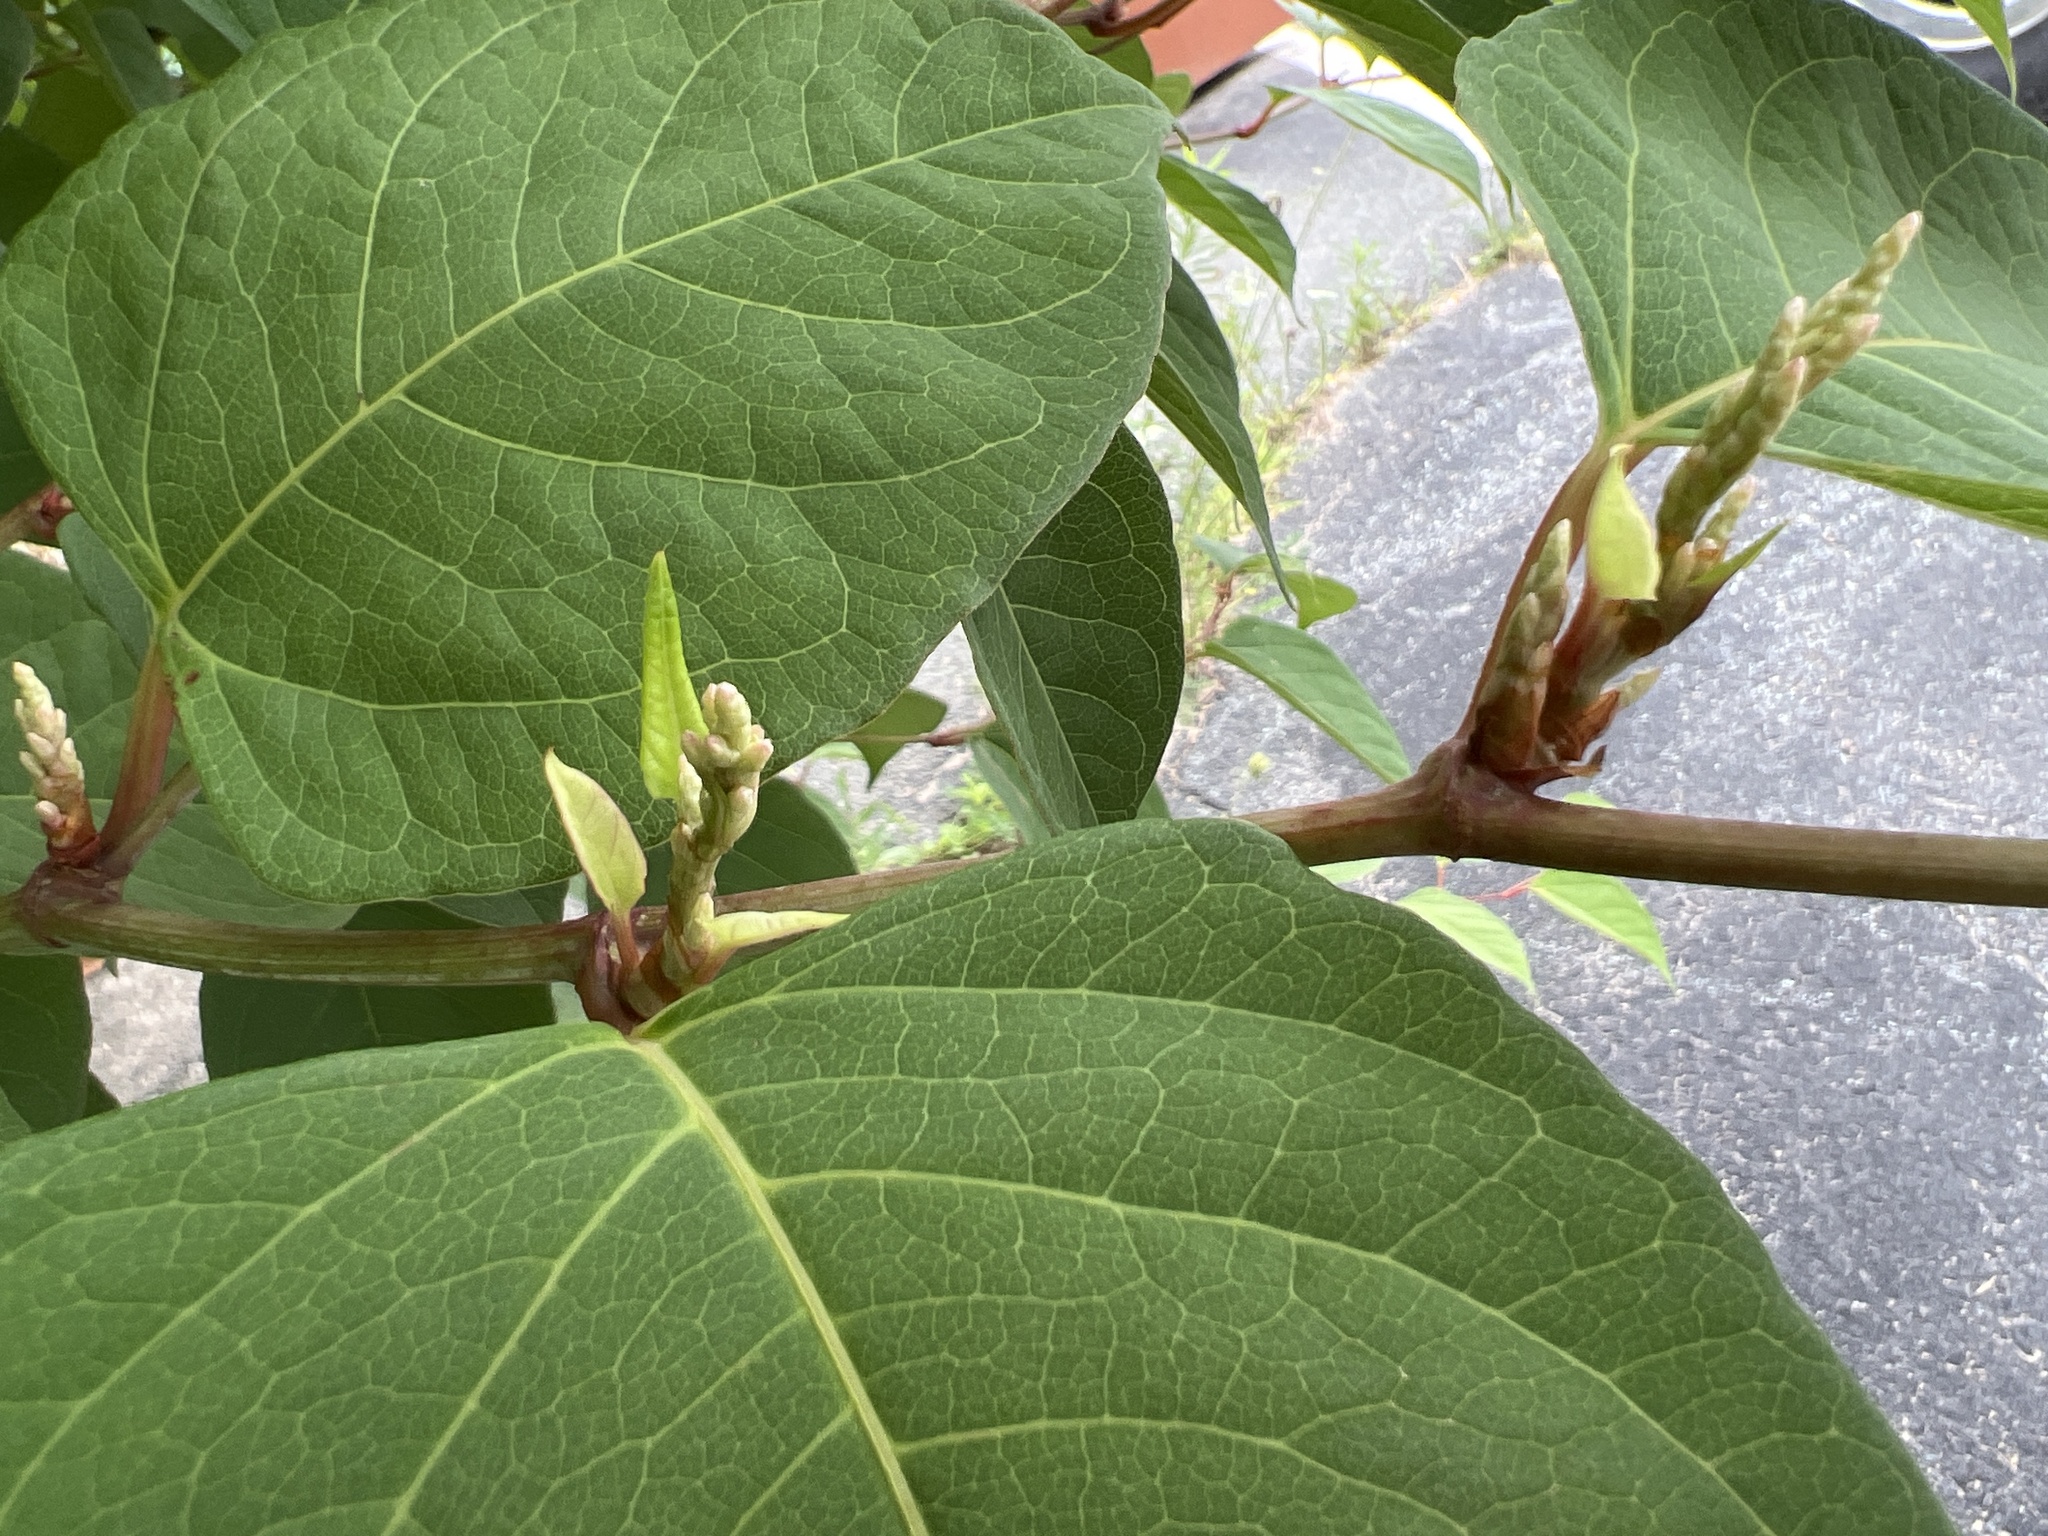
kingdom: Plantae
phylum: Tracheophyta
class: Magnoliopsida
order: Caryophyllales
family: Polygonaceae
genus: Reynoutria
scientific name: Reynoutria japonica
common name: Japanese knotweed
